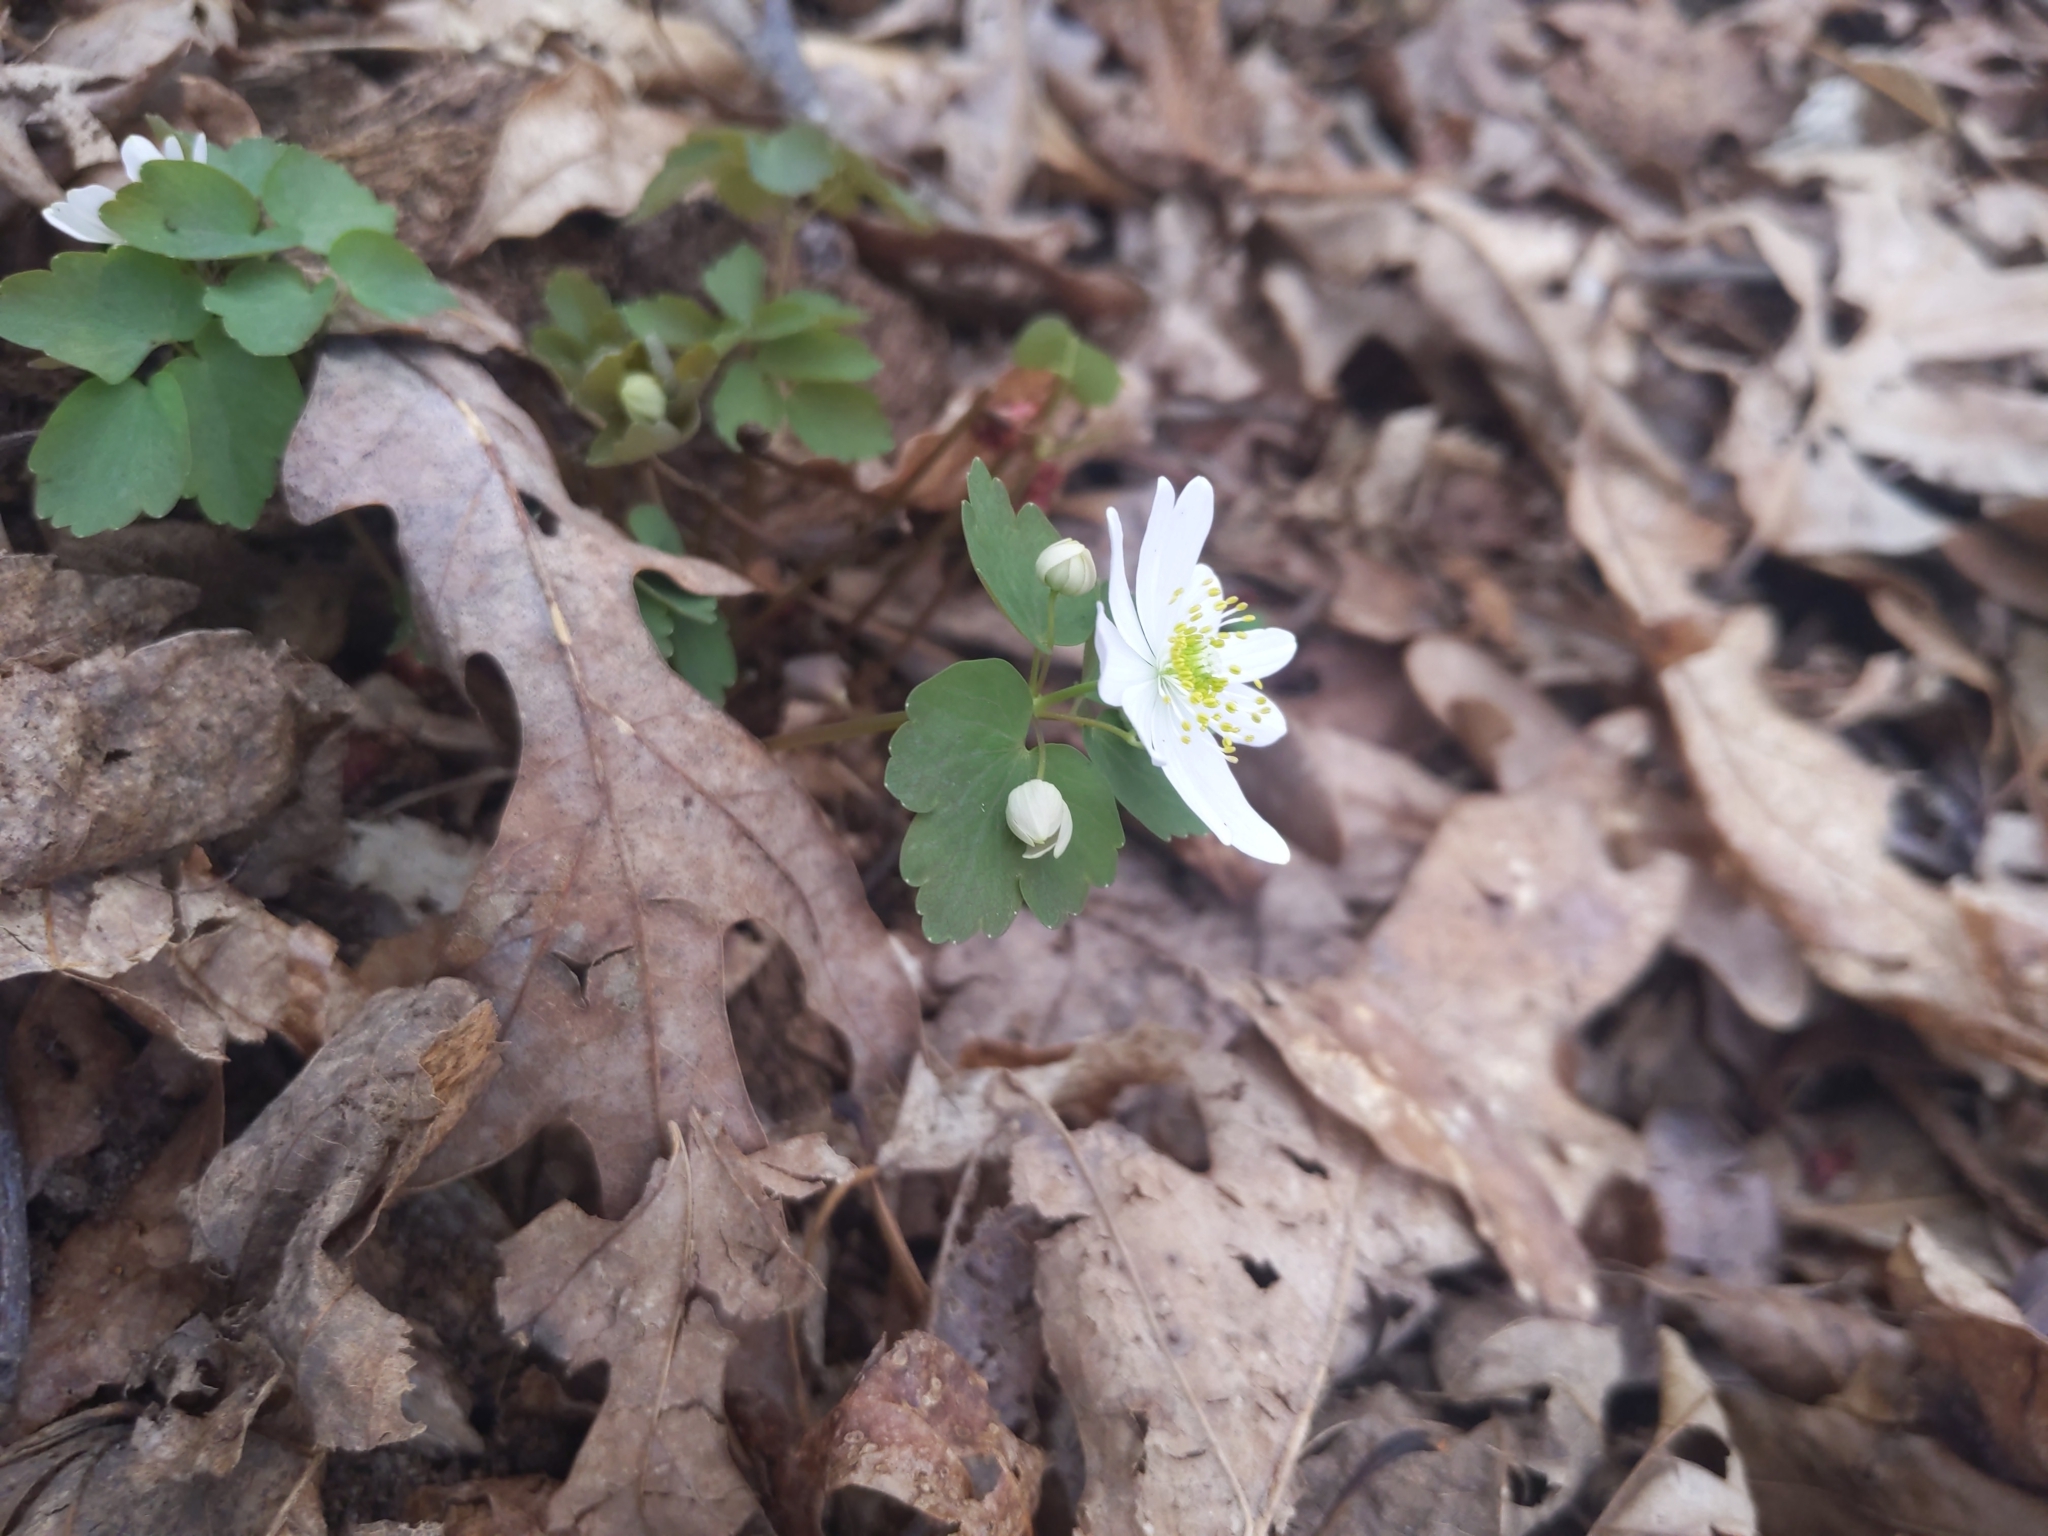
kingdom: Plantae
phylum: Tracheophyta
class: Magnoliopsida
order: Ranunculales
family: Ranunculaceae
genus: Thalictrum
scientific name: Thalictrum thalictroides
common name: Rue-anemone
